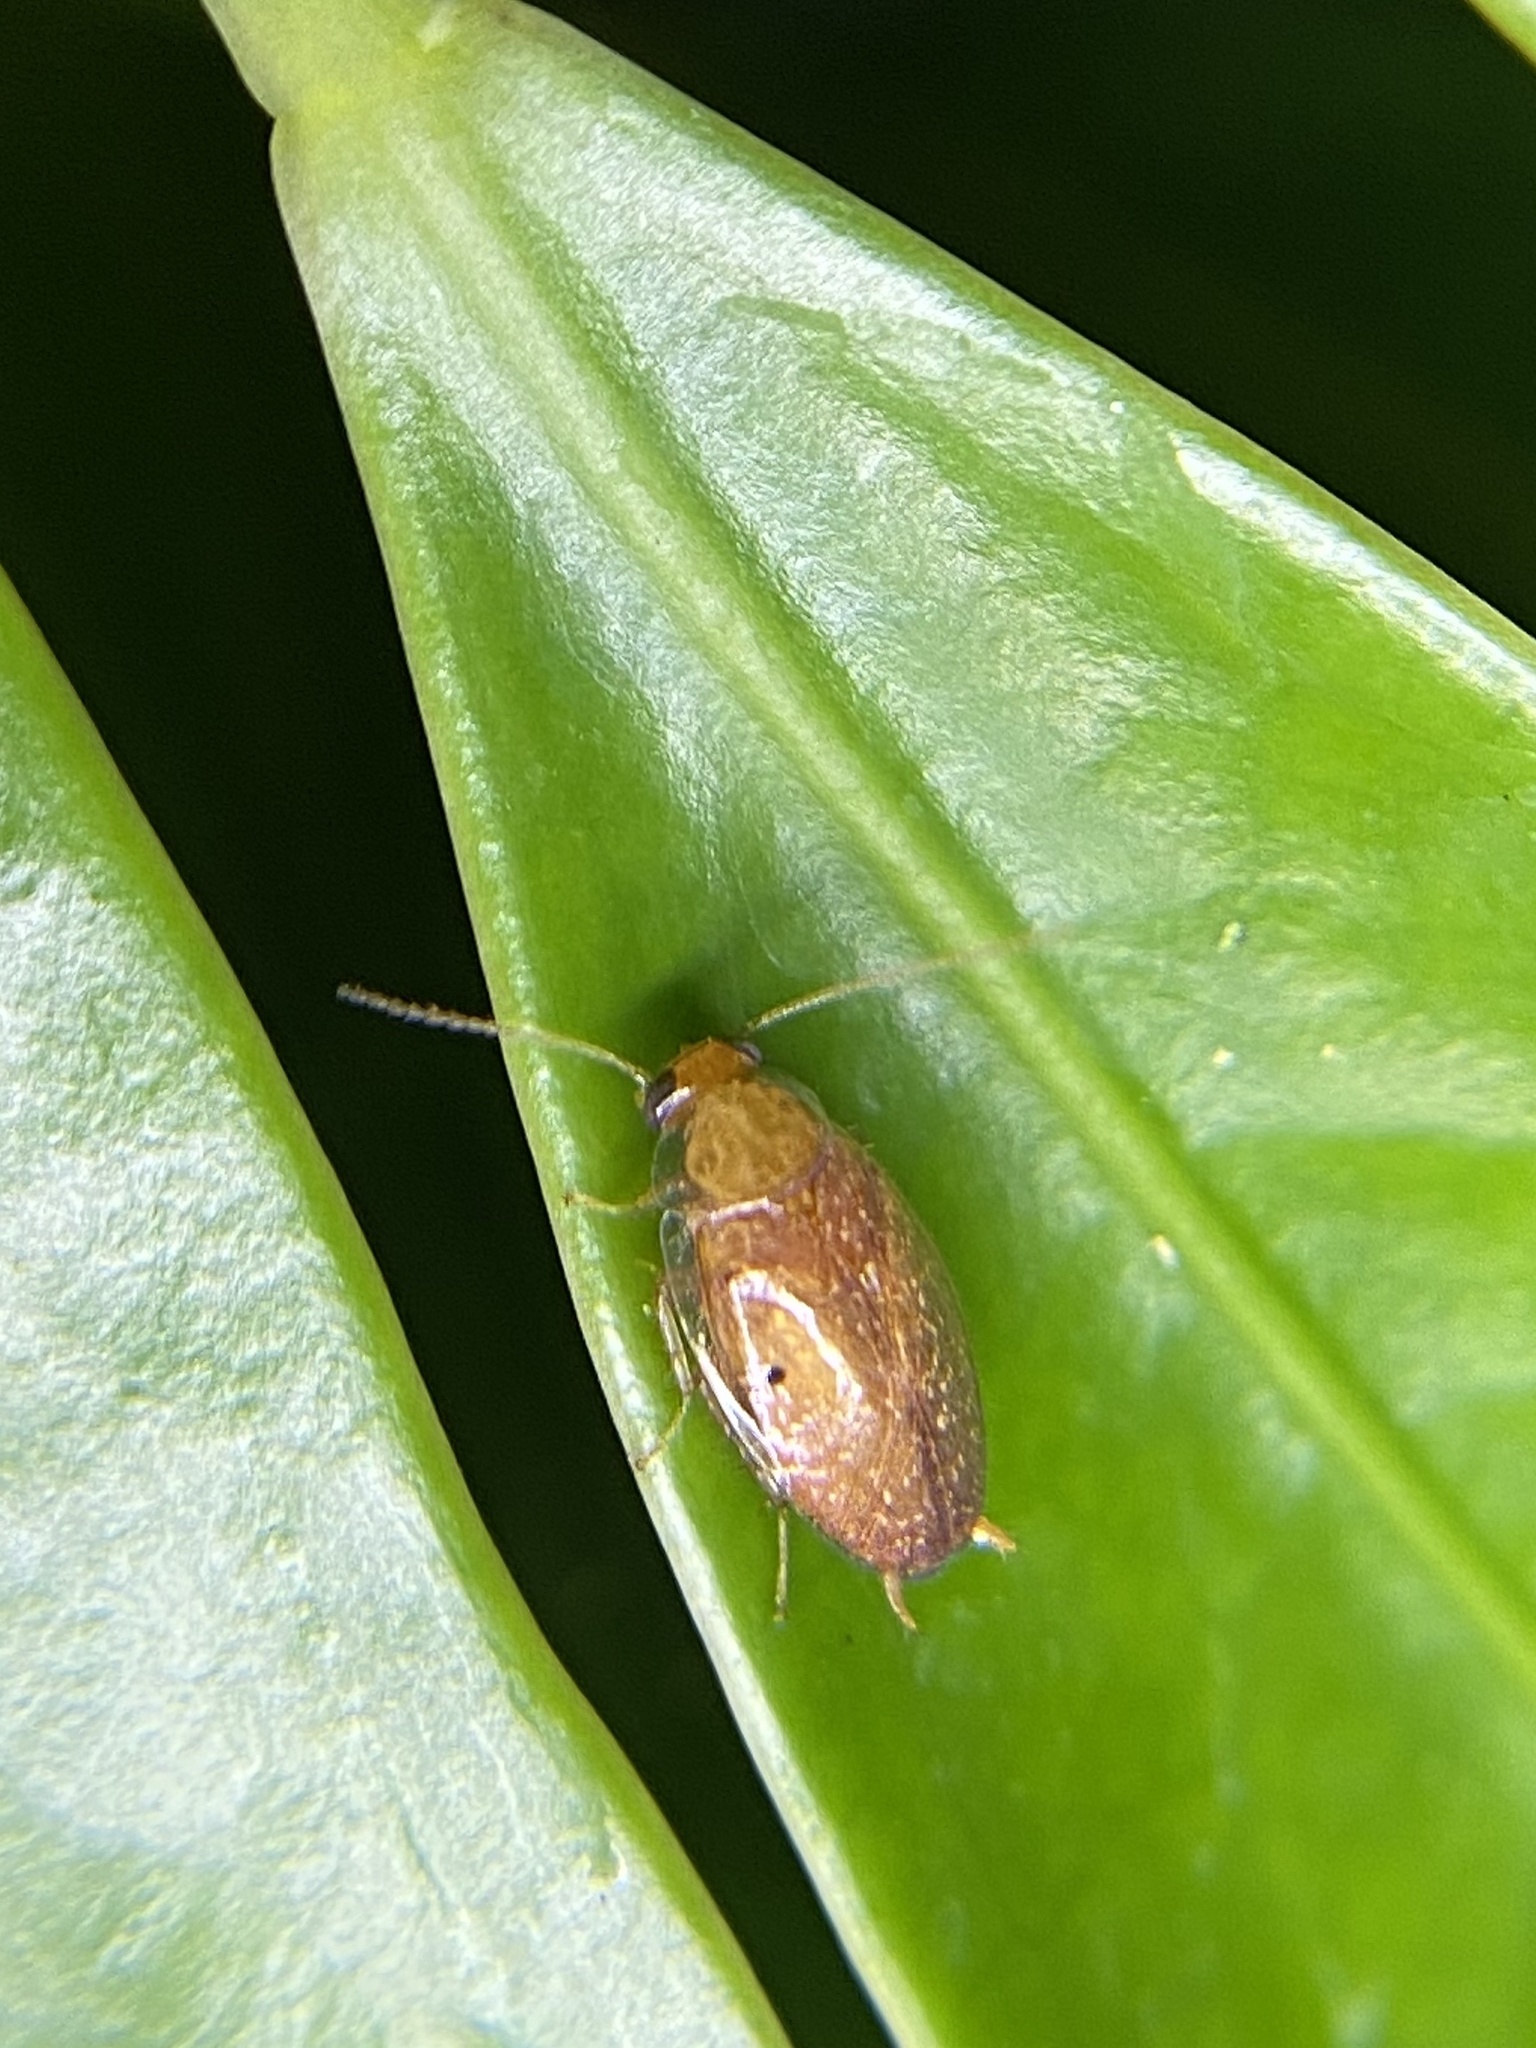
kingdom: Animalia
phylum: Arthropoda
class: Insecta
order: Blattodea
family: Ectobiidae
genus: Plectoptera
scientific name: Plectoptera poeyi
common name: Florida beetle cockroach
